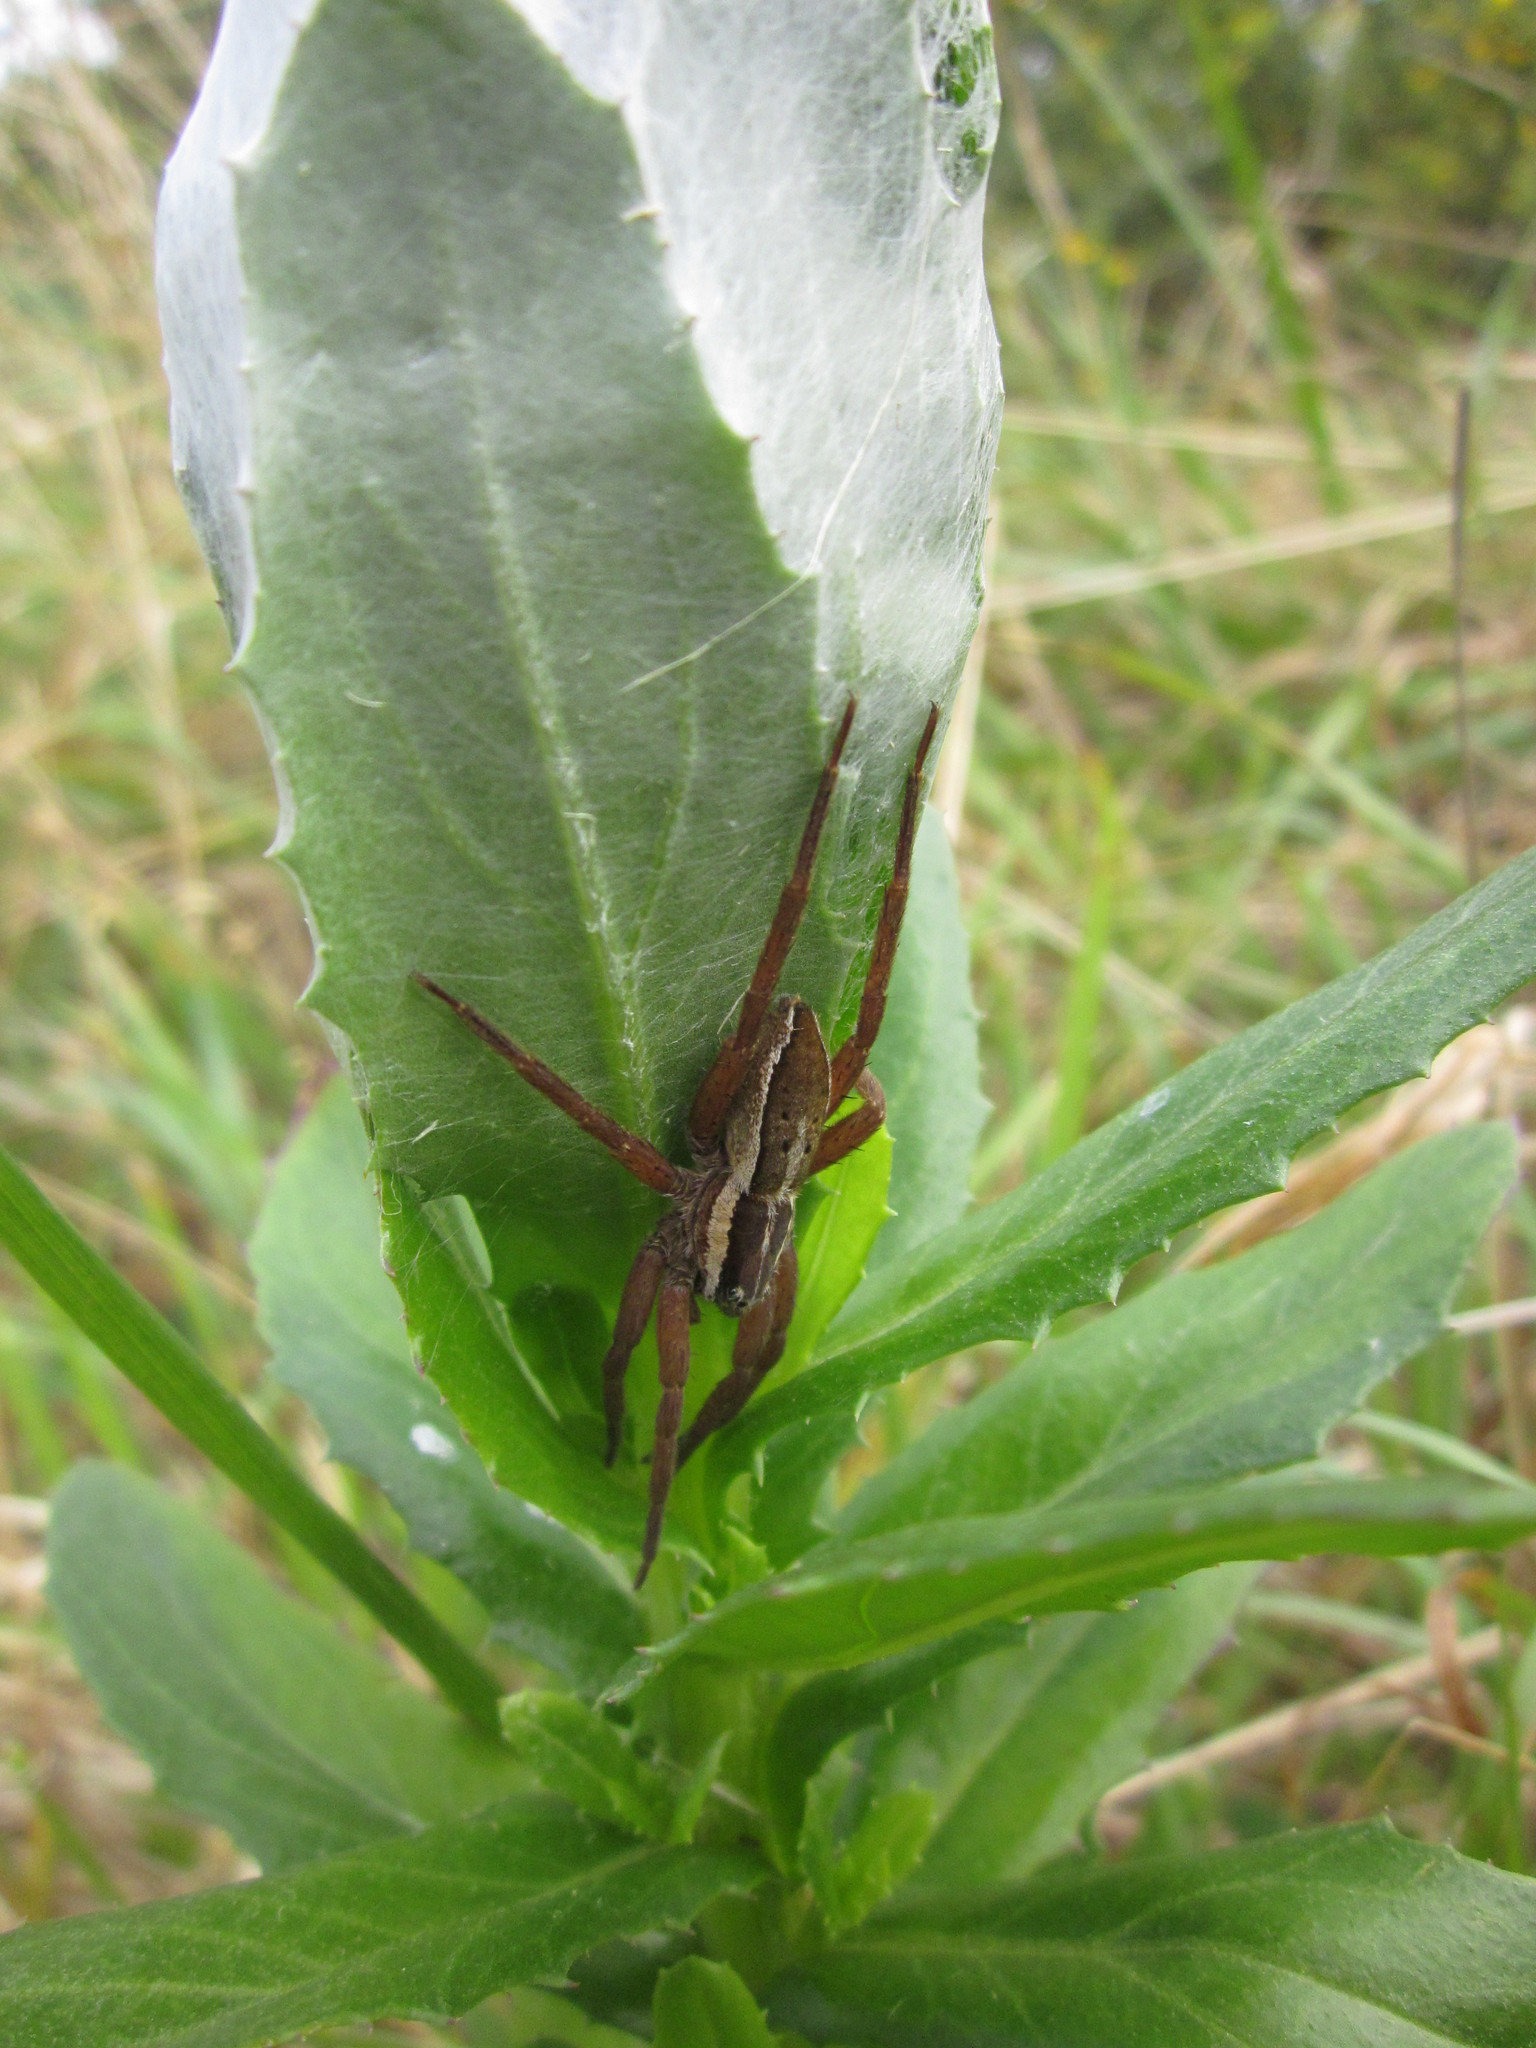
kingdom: Animalia
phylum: Arthropoda
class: Arachnida
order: Araneae
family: Pisauridae
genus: Dolomedes
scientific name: Dolomedes minor
